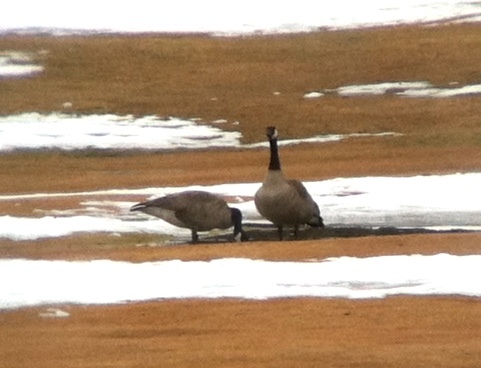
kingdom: Animalia
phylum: Chordata
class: Aves
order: Anseriformes
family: Anatidae
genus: Branta
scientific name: Branta canadensis
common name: Canada goose
